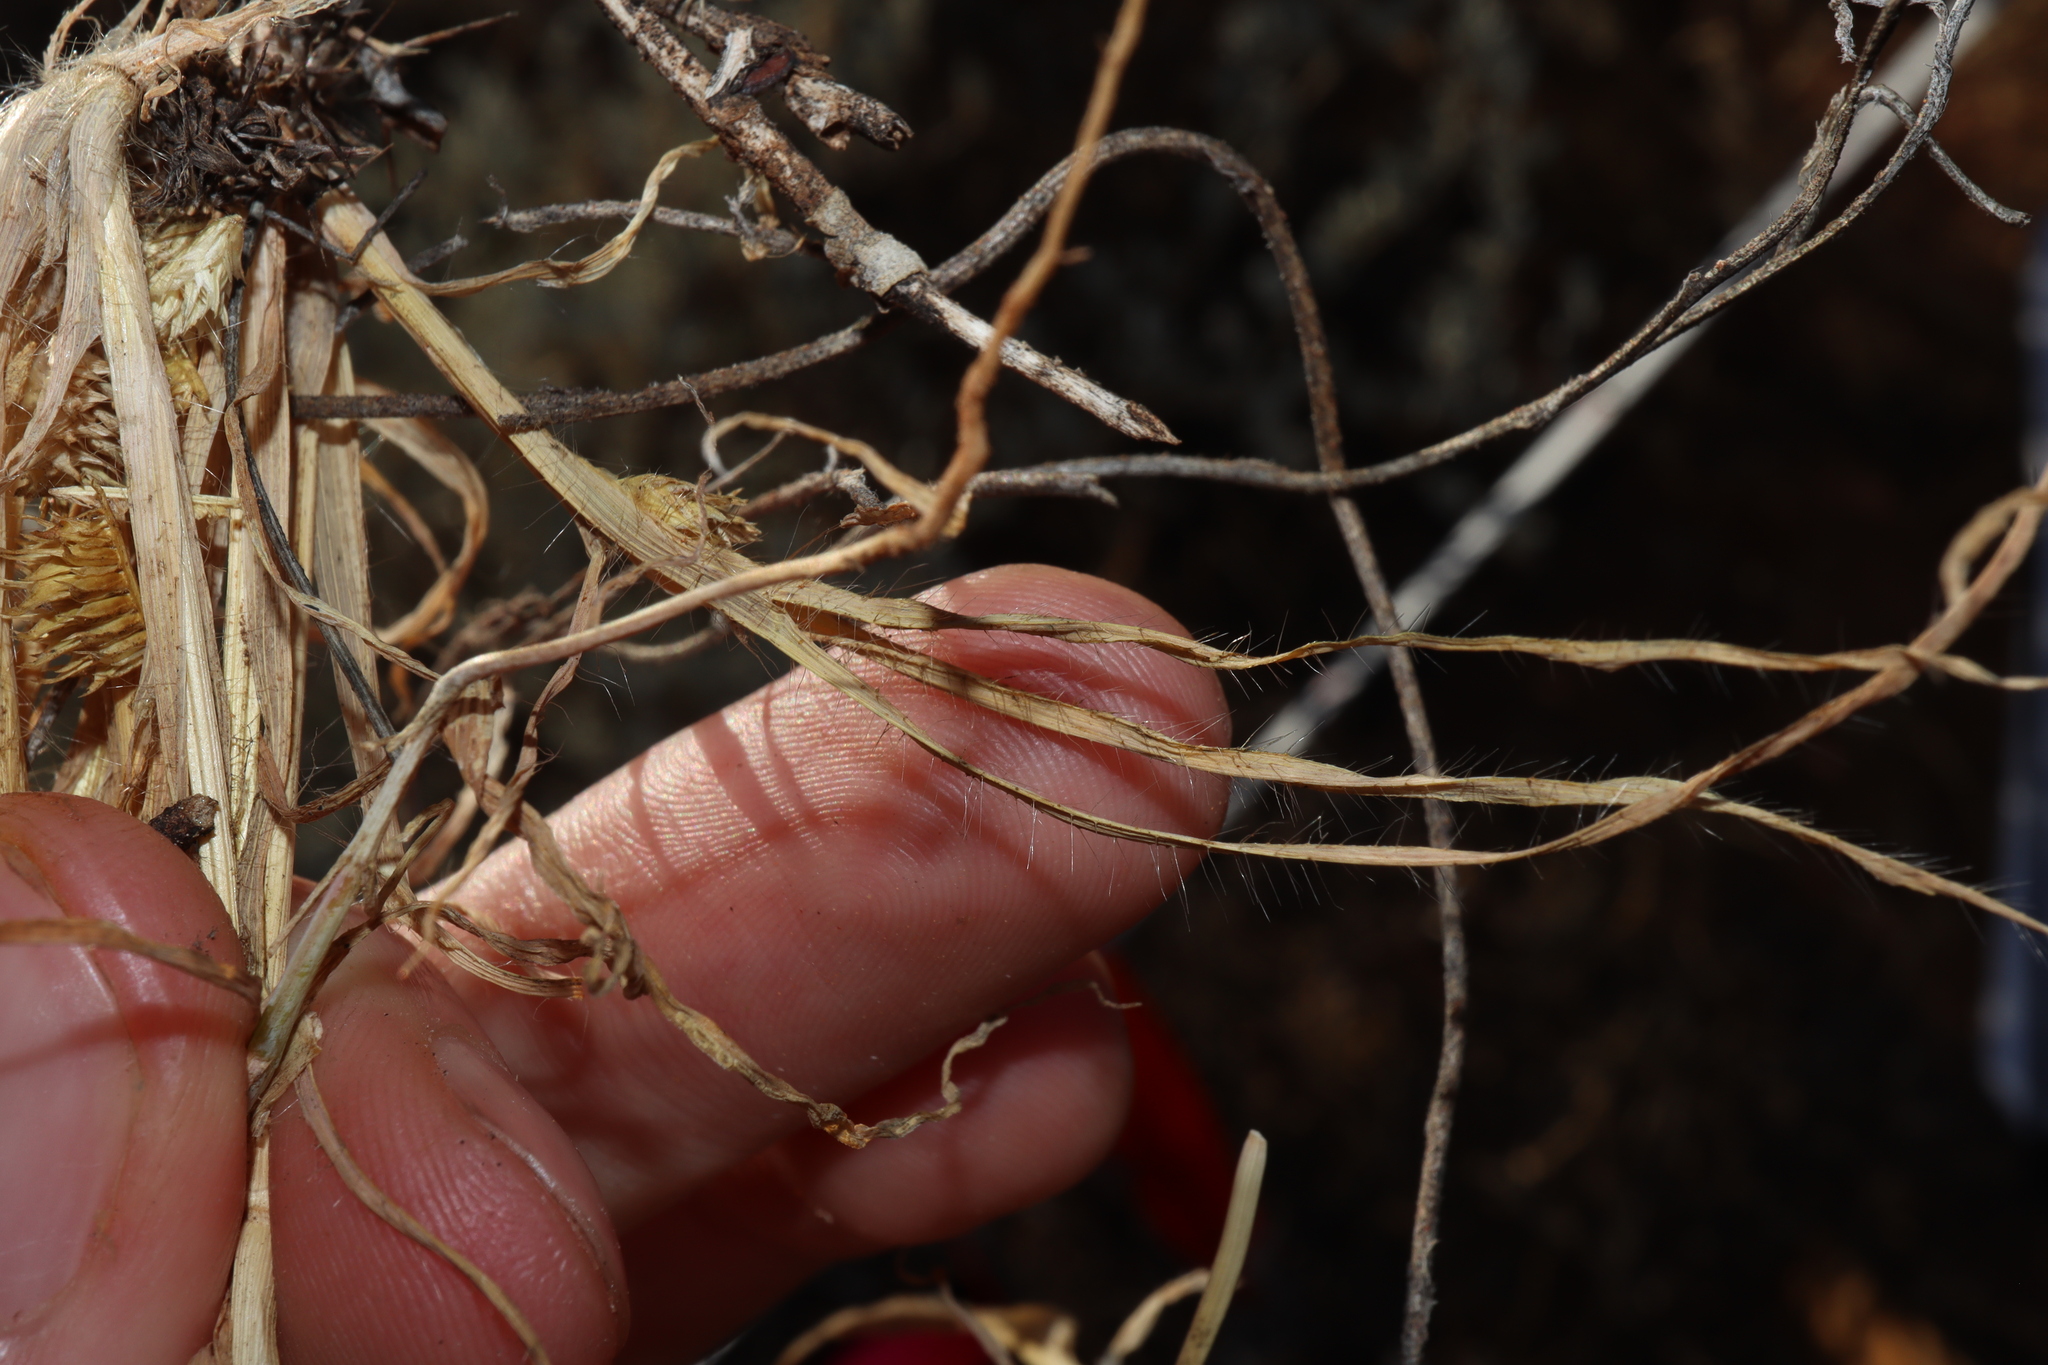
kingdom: Plantae
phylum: Tracheophyta
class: Liliopsida
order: Poales
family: Poaceae
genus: Dactyloctenium
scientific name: Dactyloctenium radulans
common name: Button-grass
